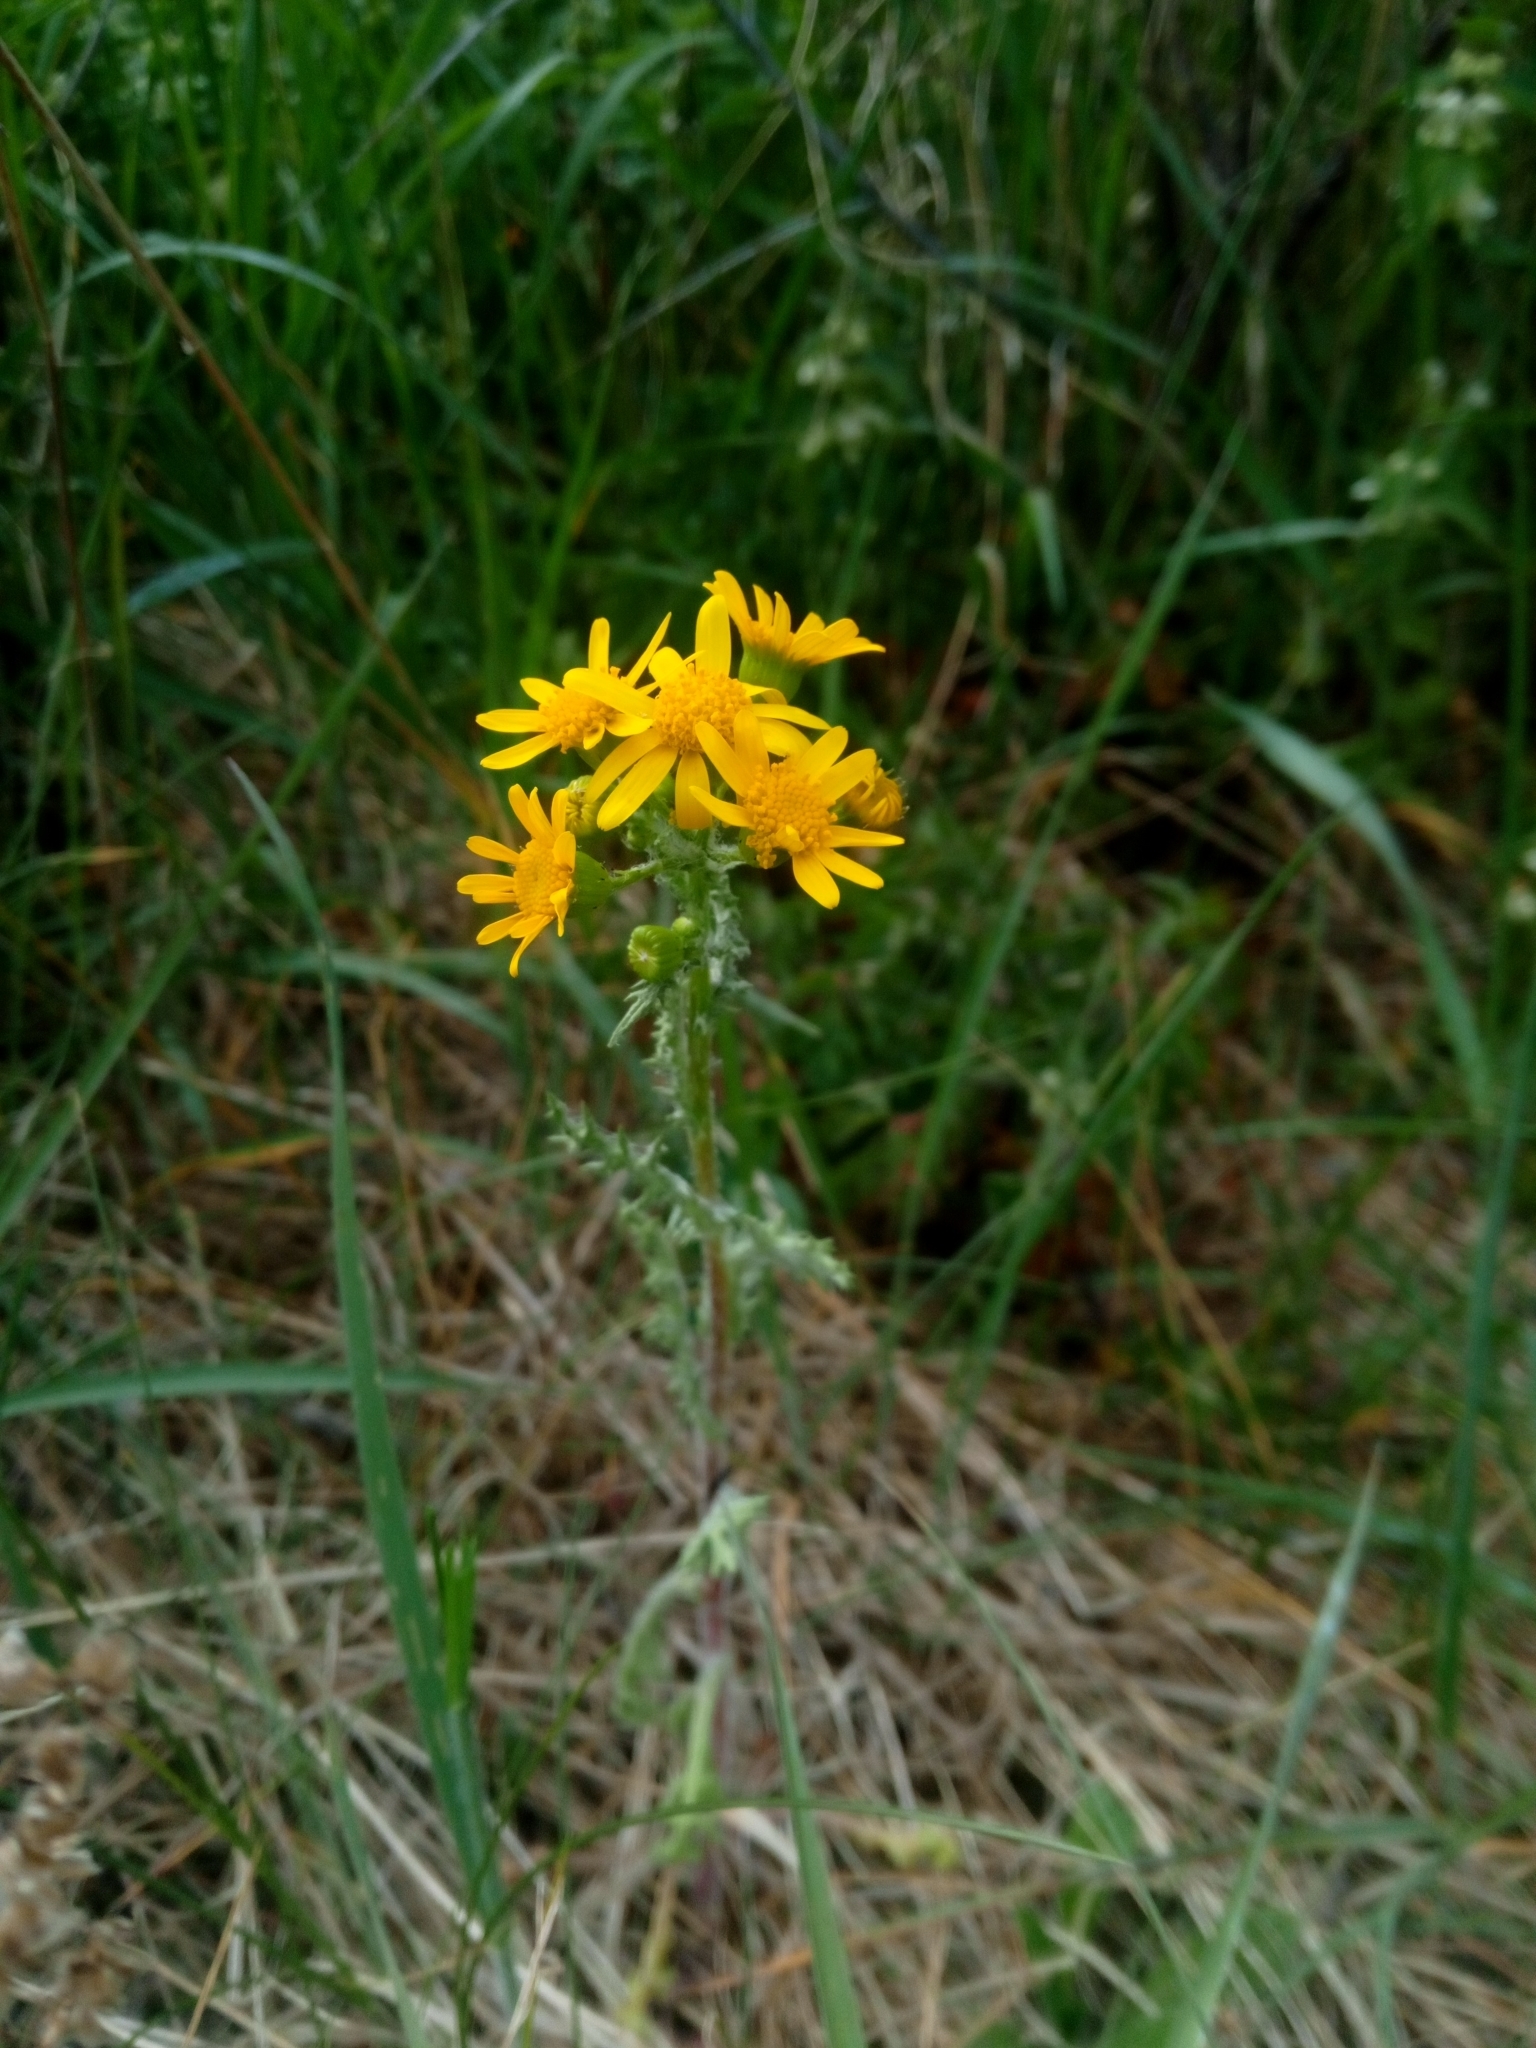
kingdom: Plantae
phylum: Tracheophyta
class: Magnoliopsida
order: Asterales
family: Asteraceae
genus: Senecio
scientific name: Senecio vernalis
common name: Eastern groundsel
